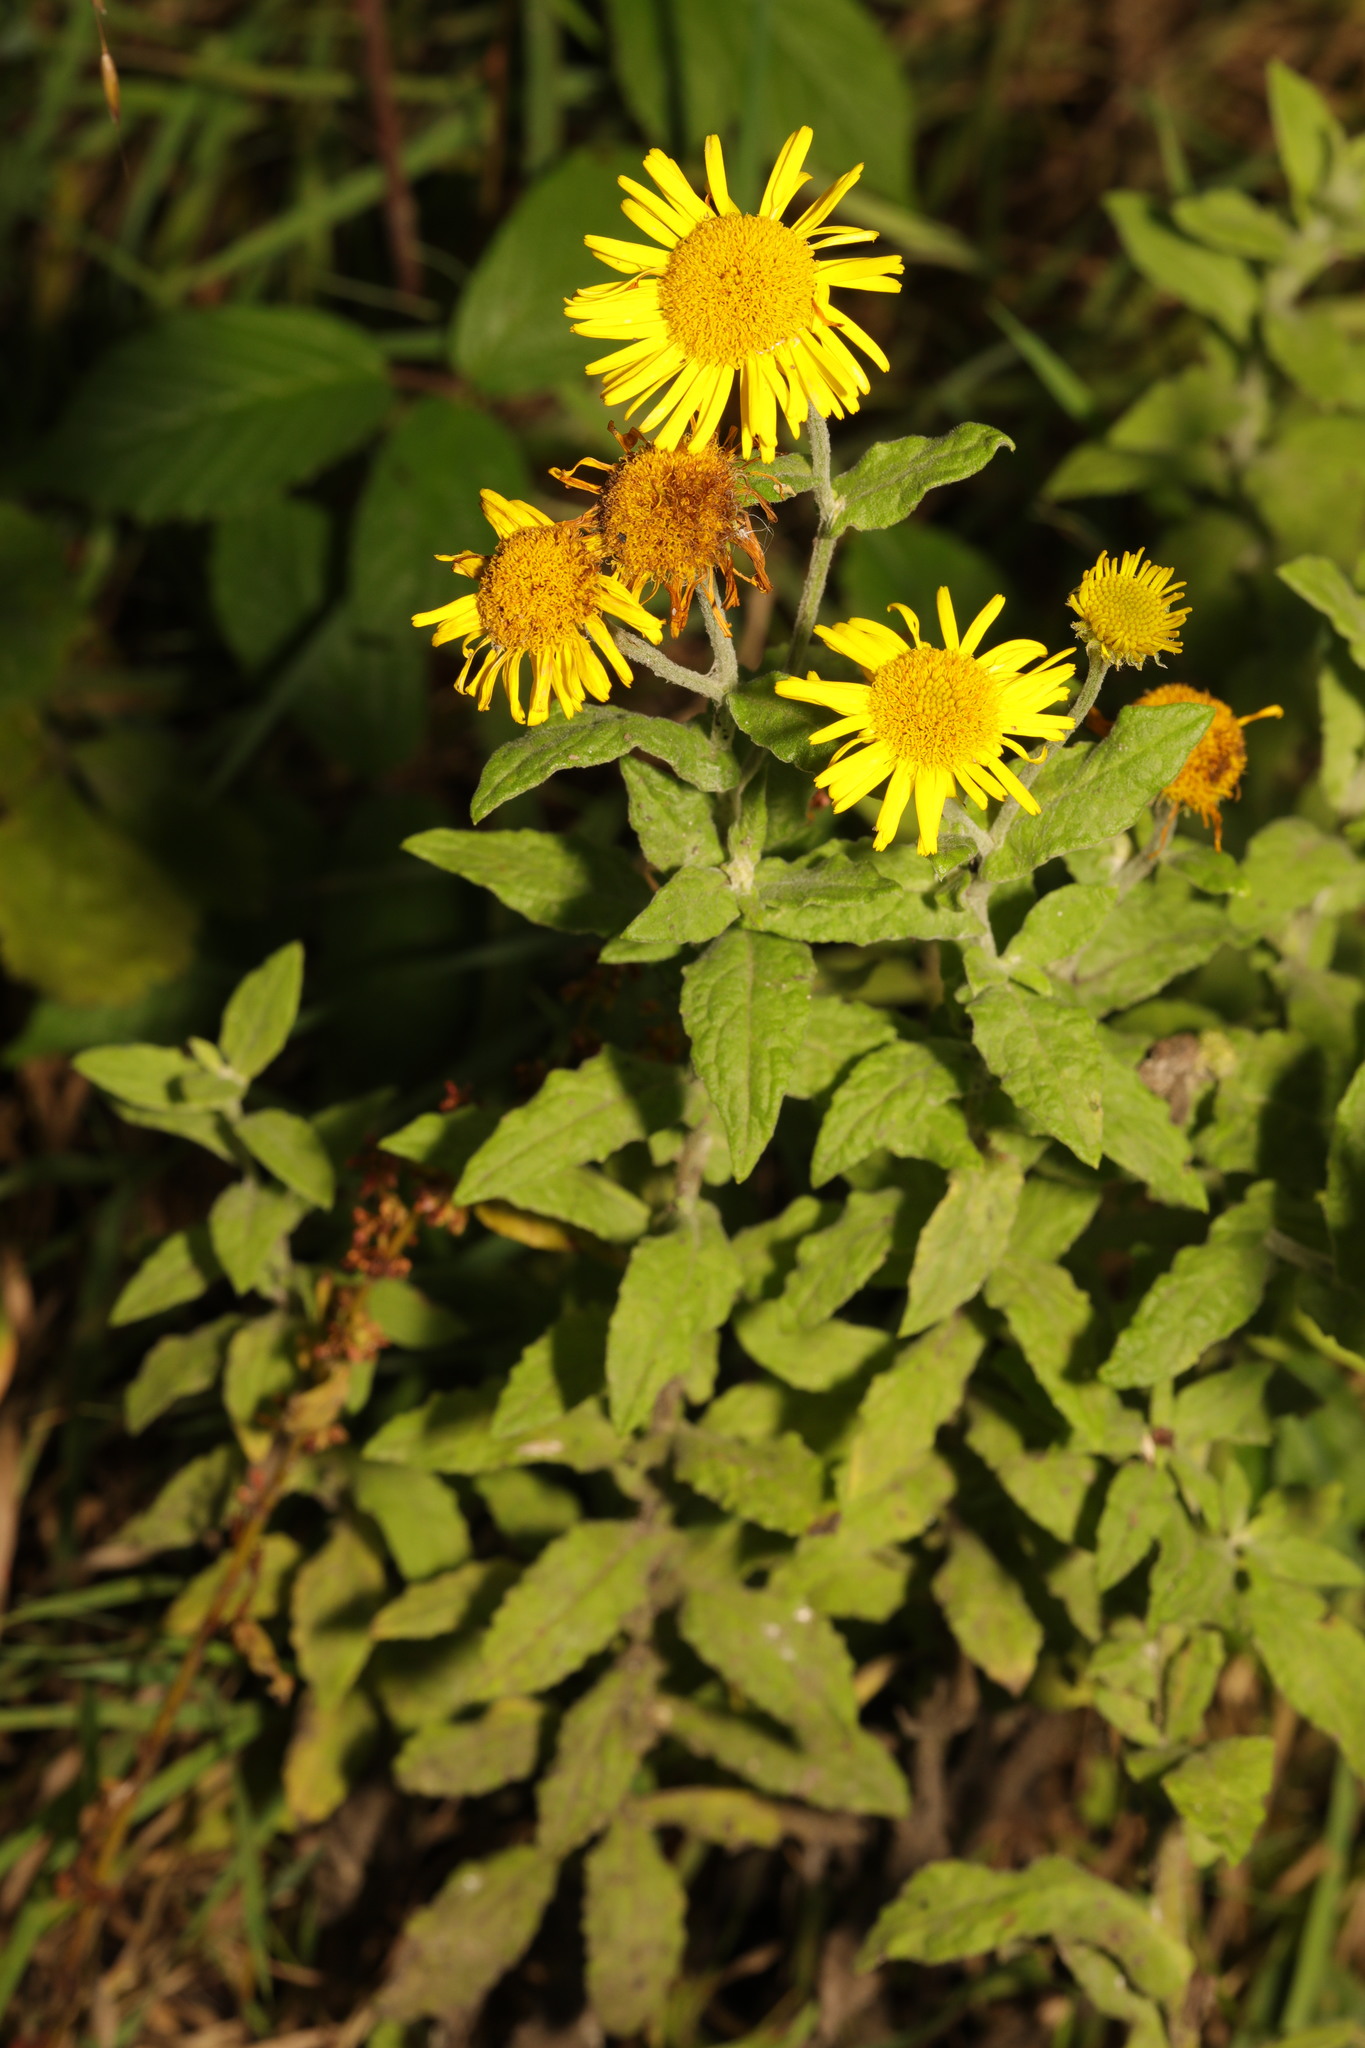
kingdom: Plantae
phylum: Tracheophyta
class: Magnoliopsida
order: Asterales
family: Asteraceae
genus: Pulicaria
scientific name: Pulicaria dysenterica
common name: Common fleabane
